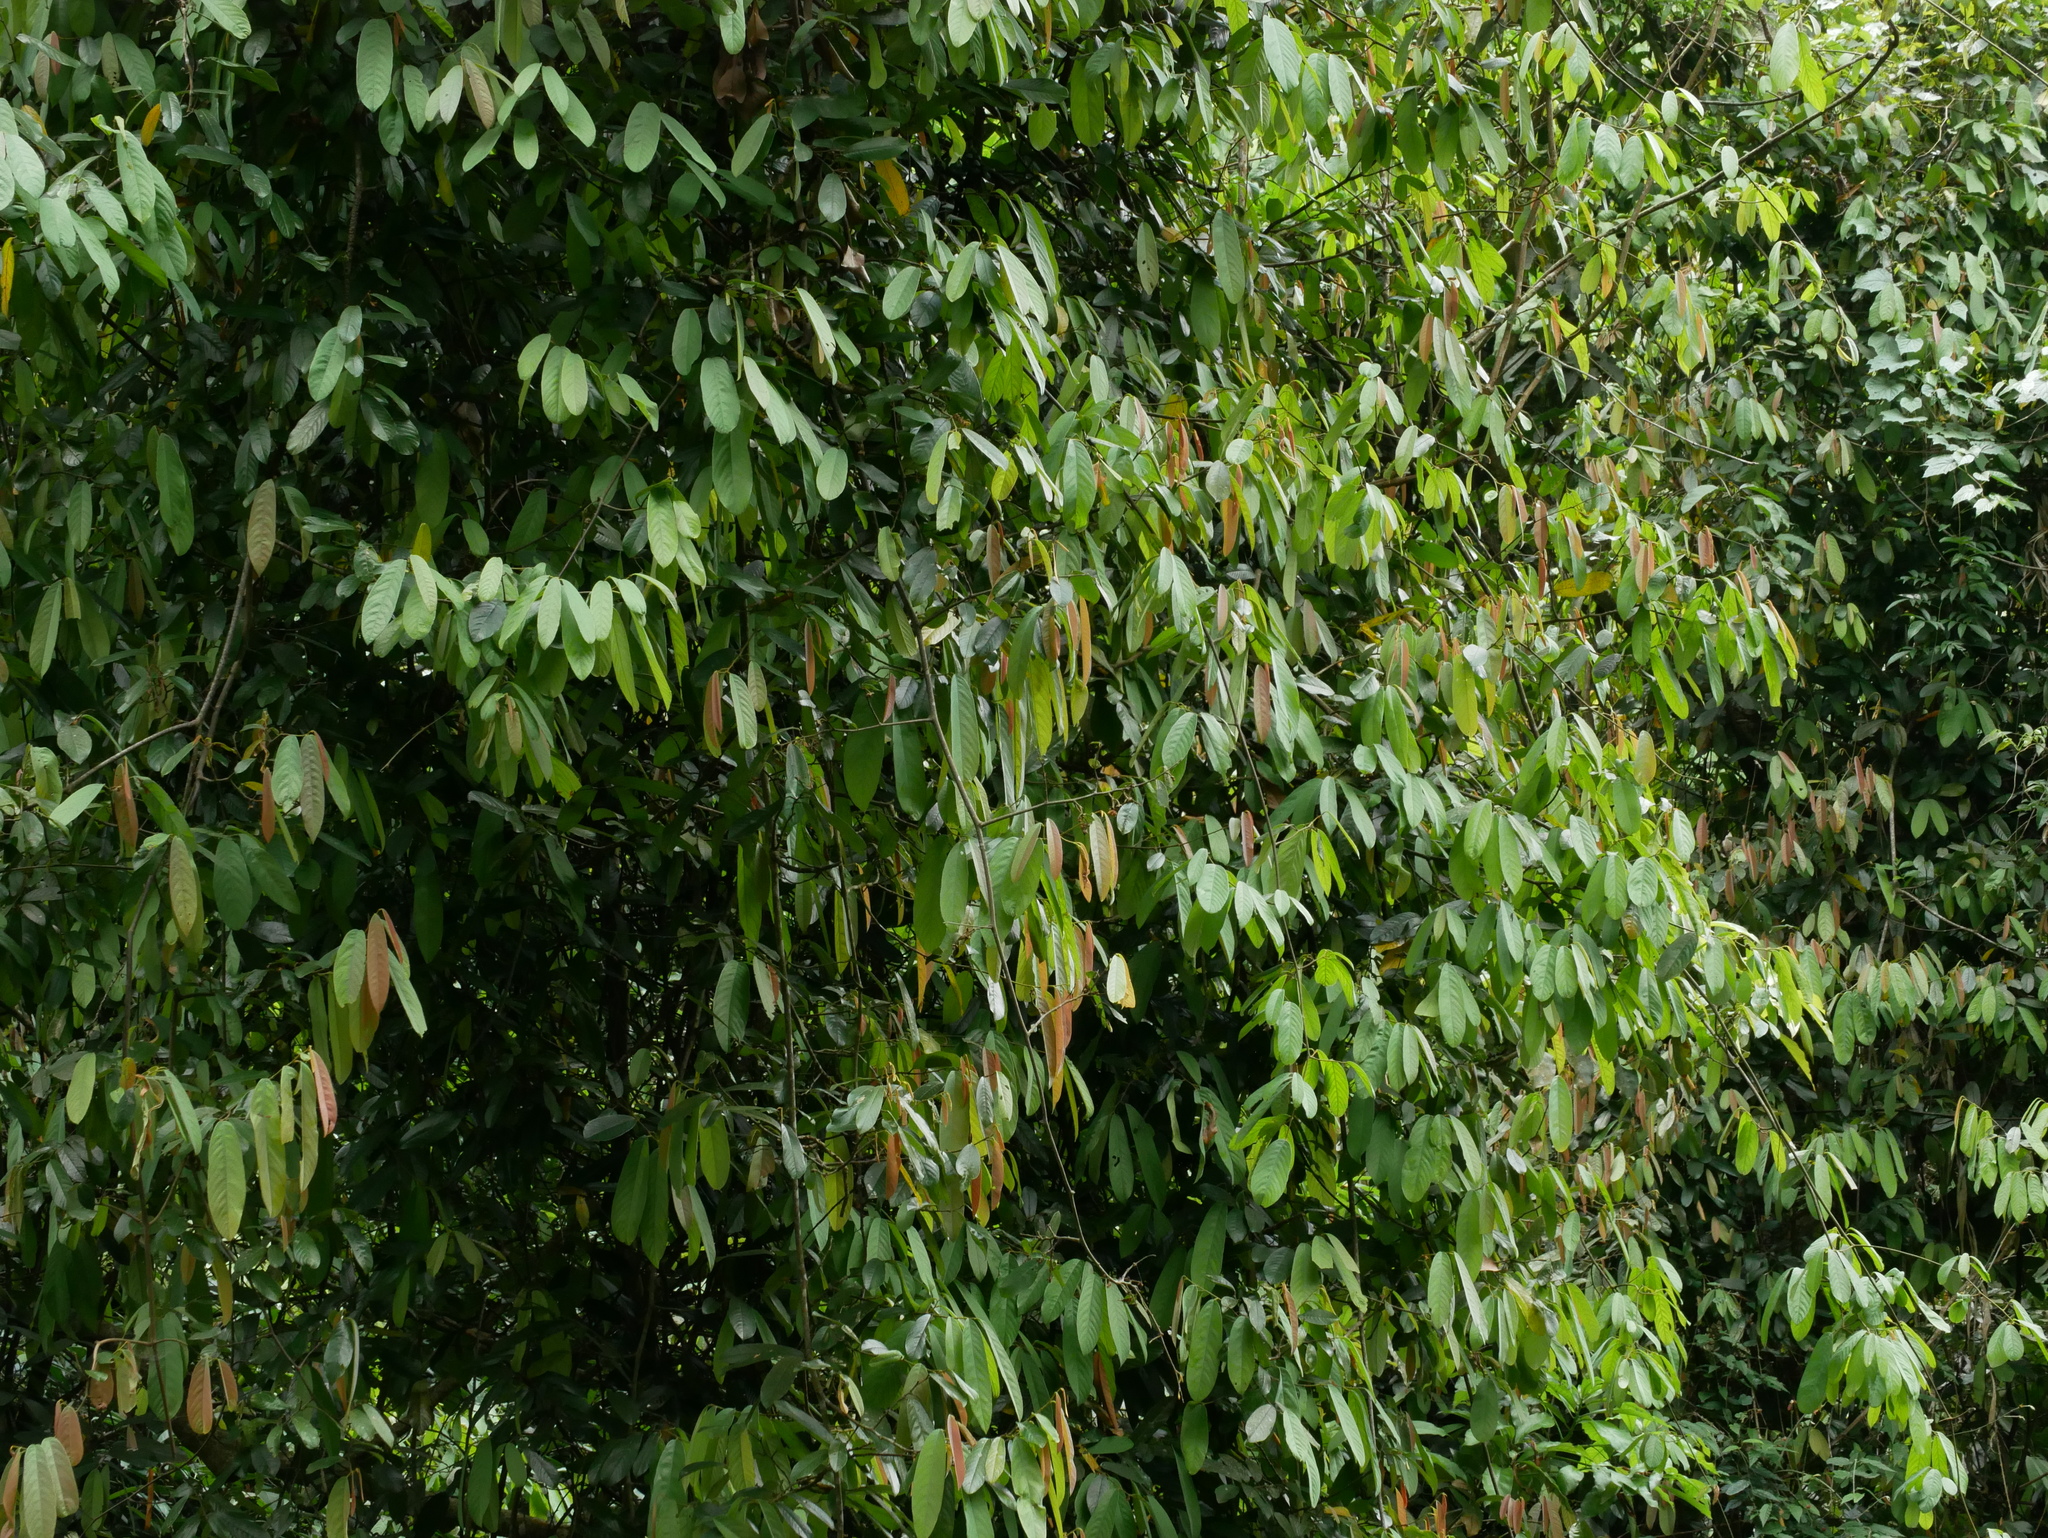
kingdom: Plantae
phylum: Tracheophyta
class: Magnoliopsida
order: Magnoliales
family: Annonaceae
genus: Fissistigma
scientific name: Fissistigma oldhamii
